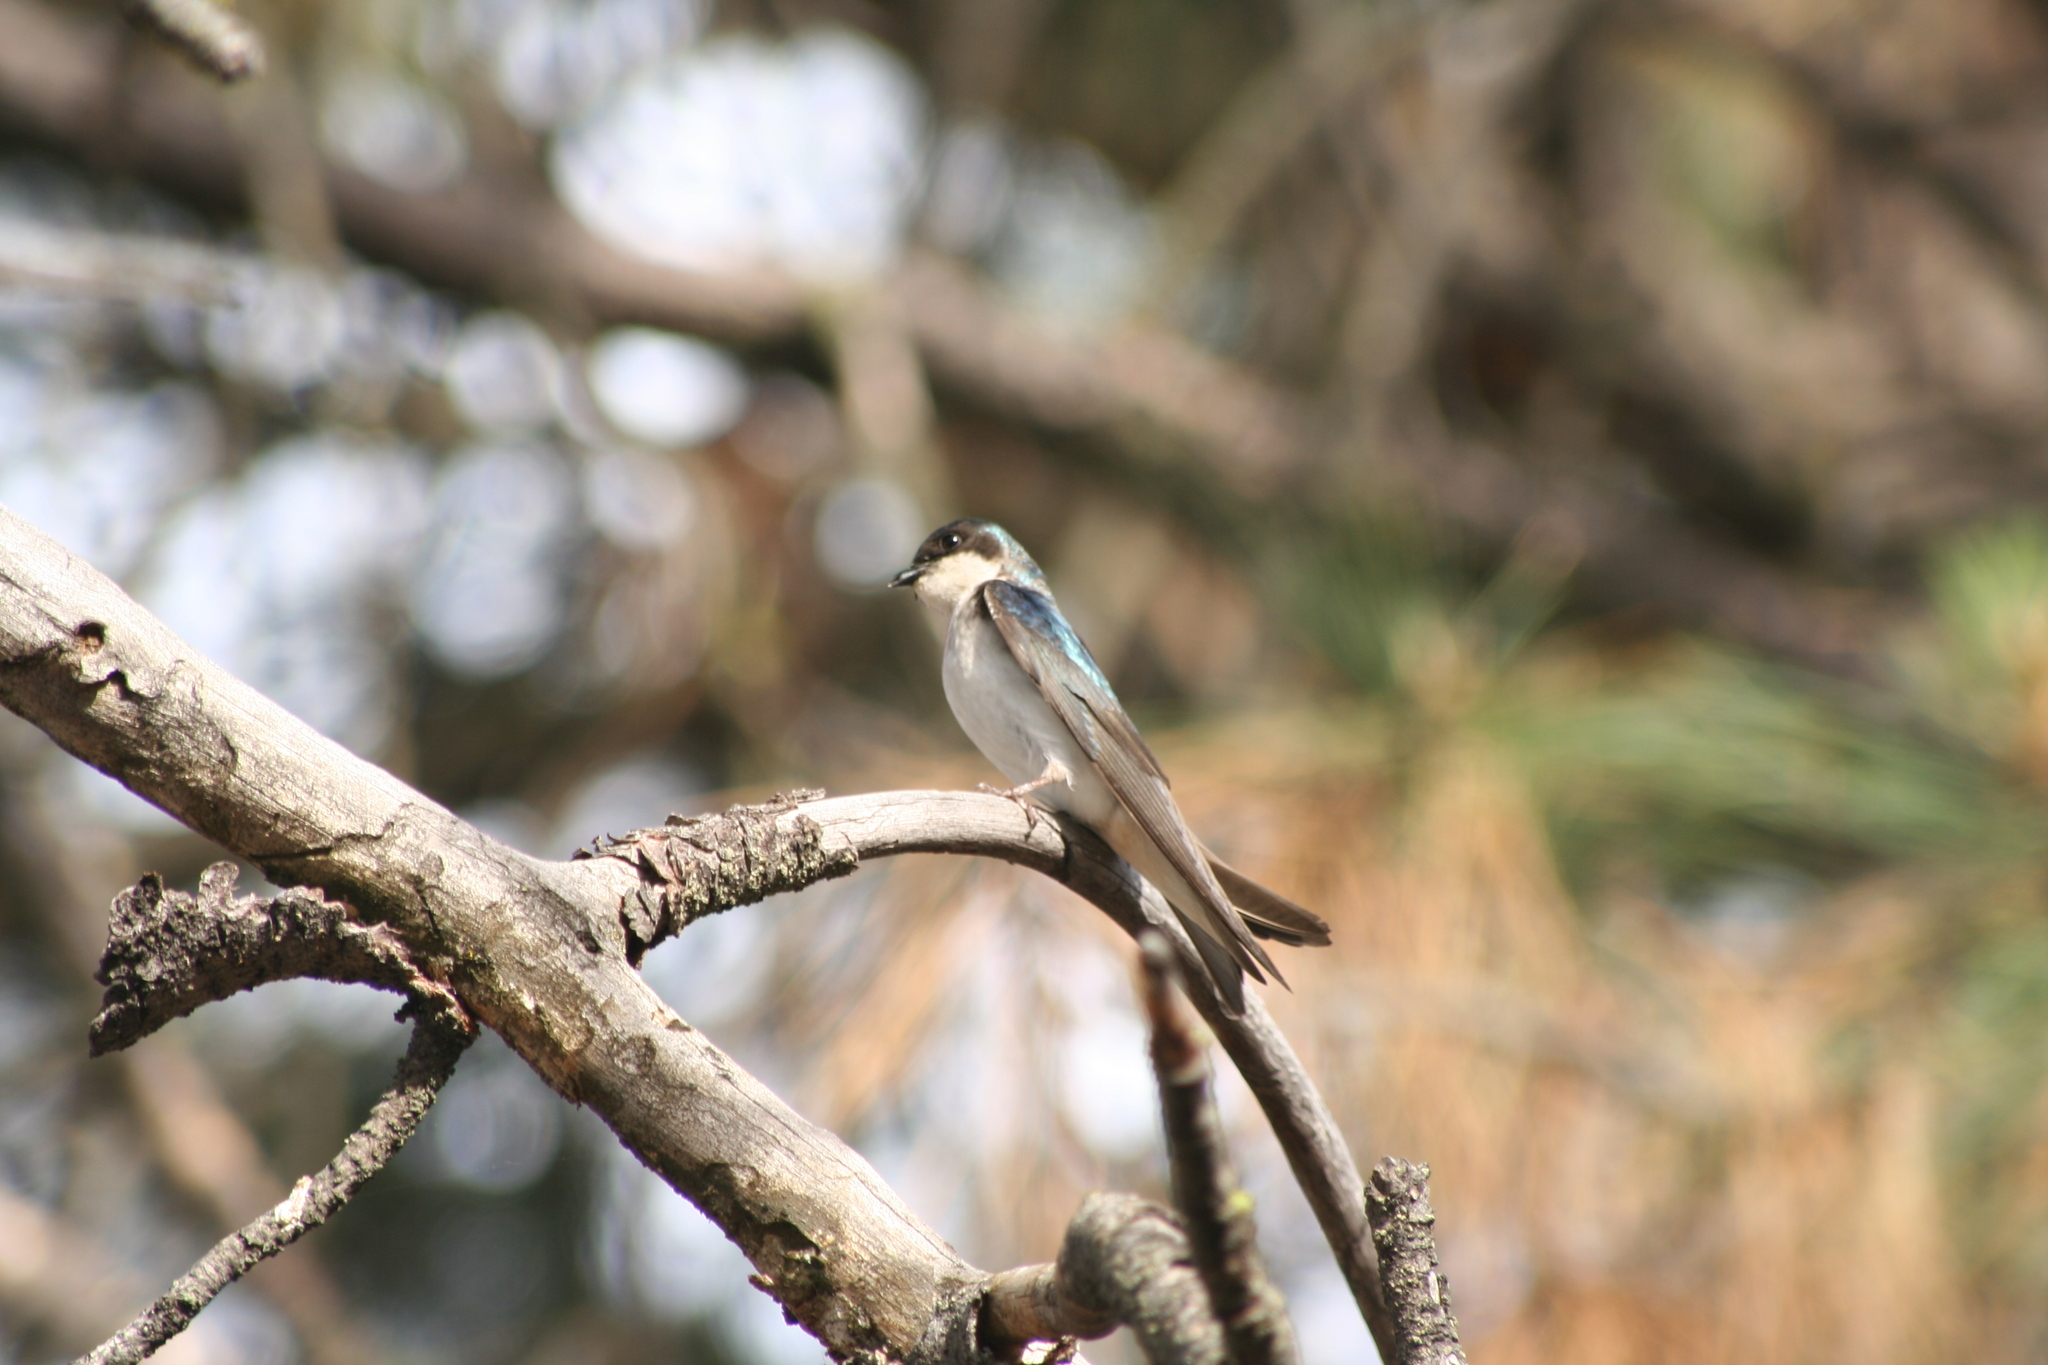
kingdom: Animalia
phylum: Chordata
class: Aves
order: Passeriformes
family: Hirundinidae
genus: Tachycineta
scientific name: Tachycineta bicolor
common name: Tree swallow
